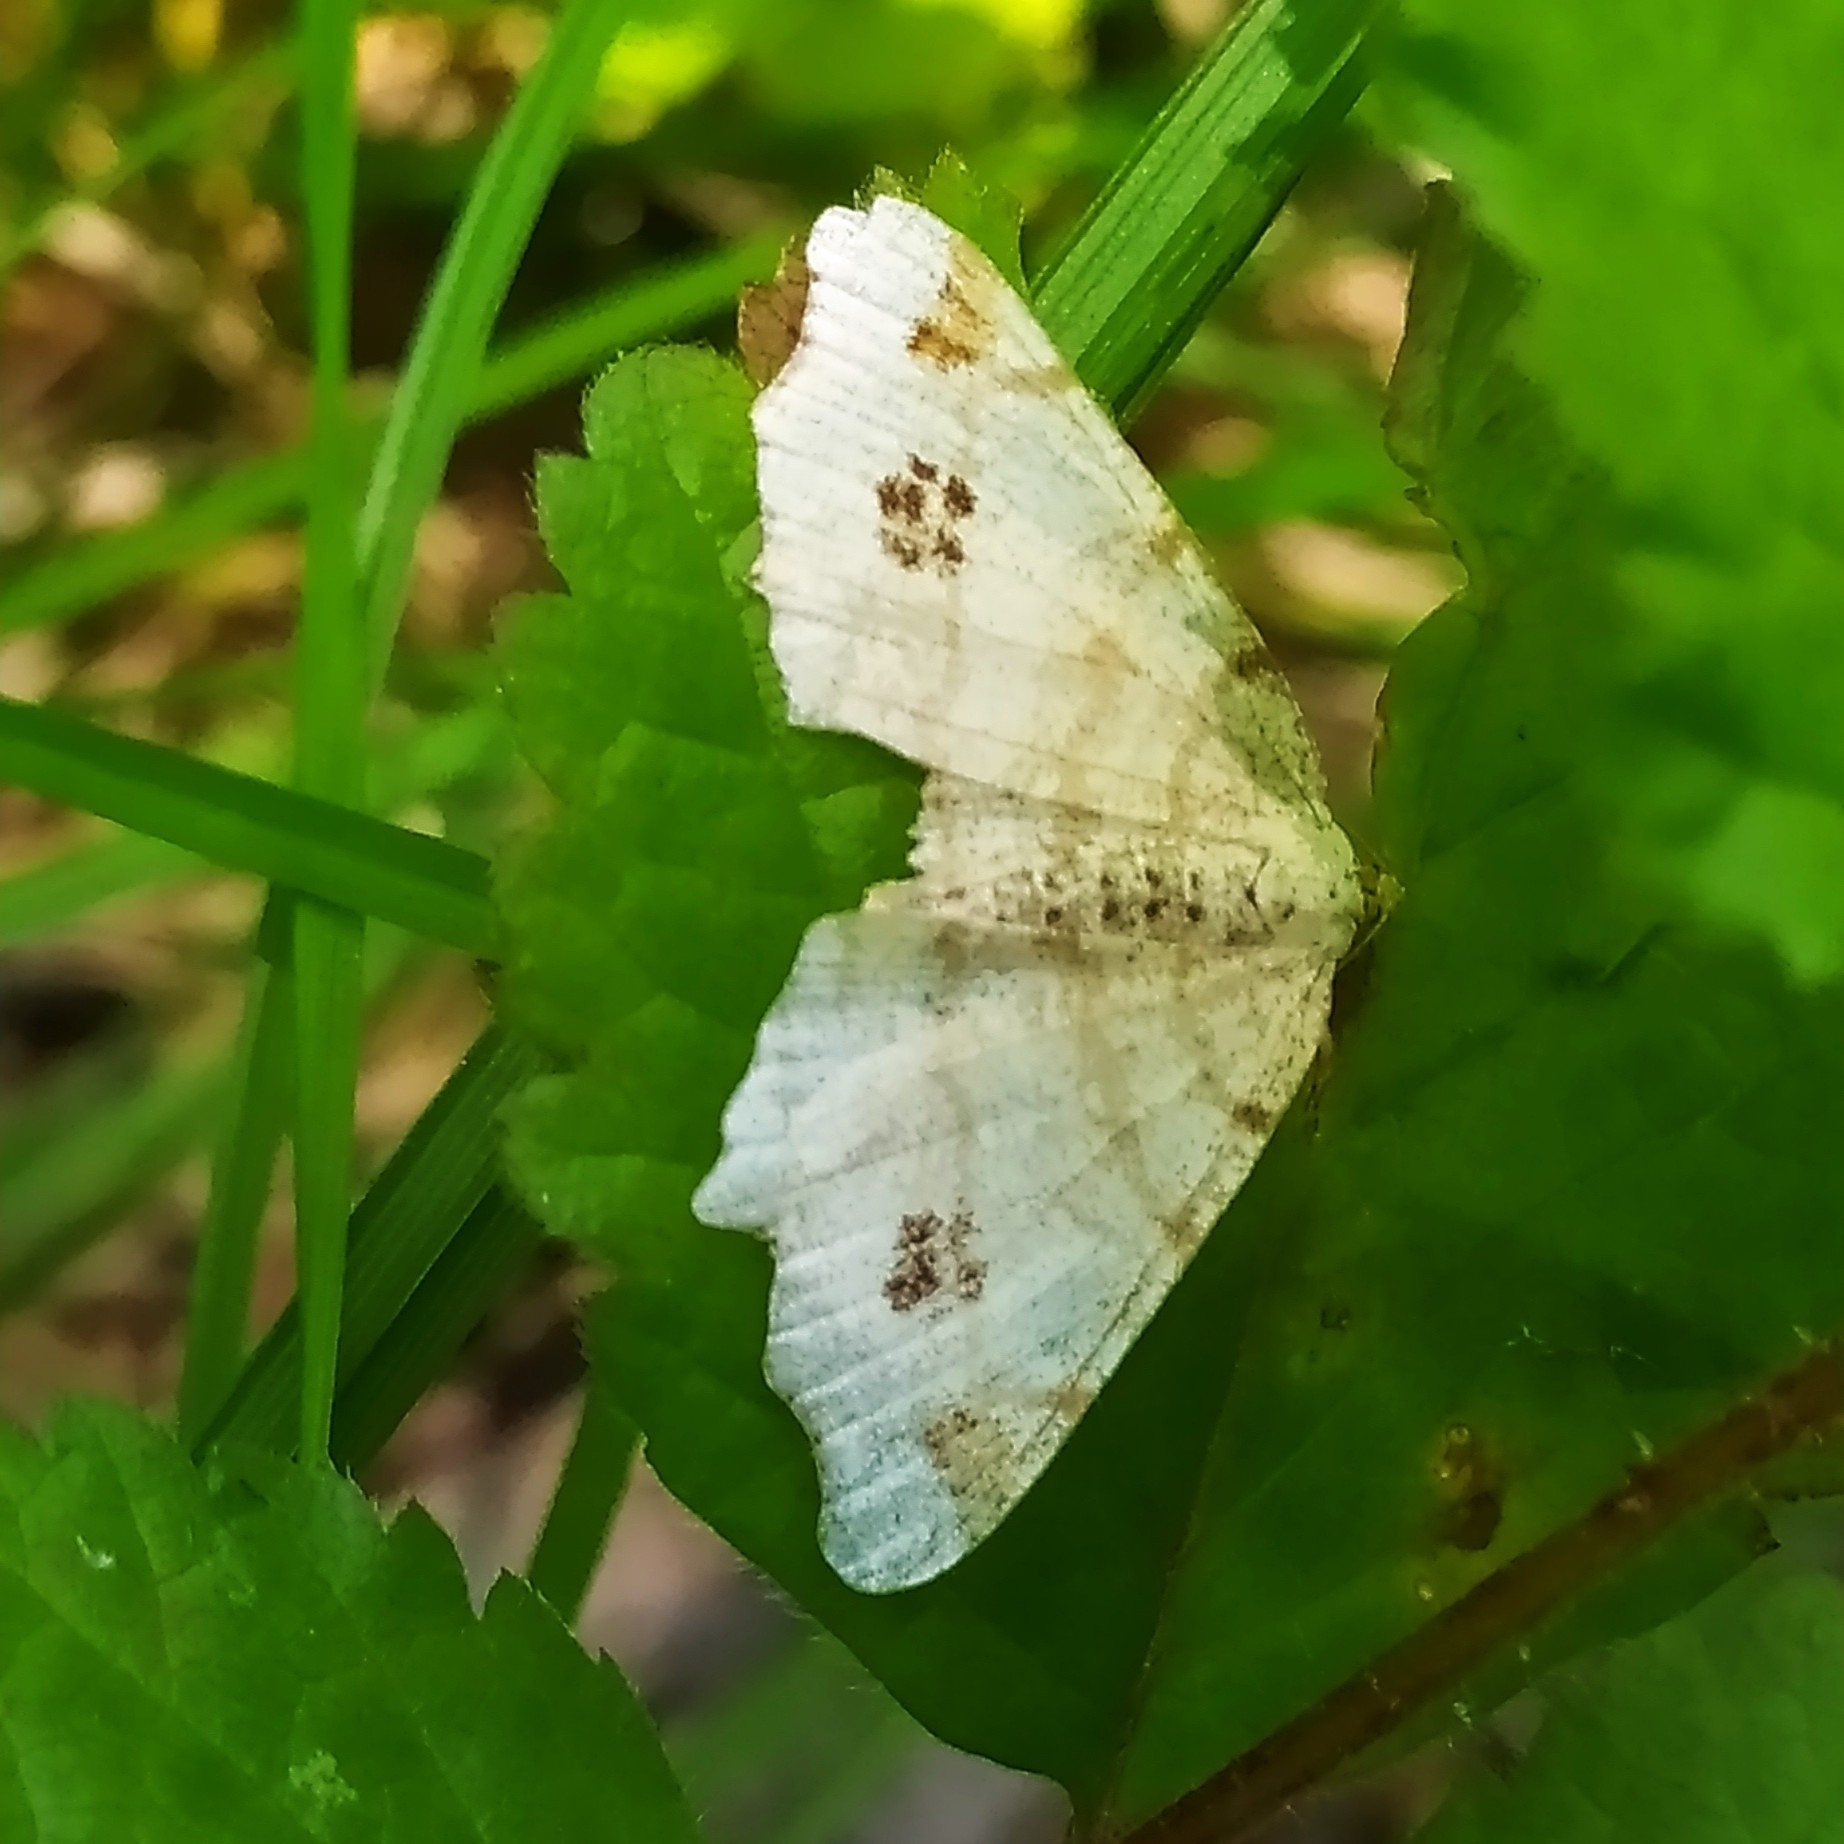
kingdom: Animalia
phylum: Arthropoda
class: Insecta
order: Lepidoptera
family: Geometridae
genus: Macaria
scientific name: Macaria notata
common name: Peacock moth
